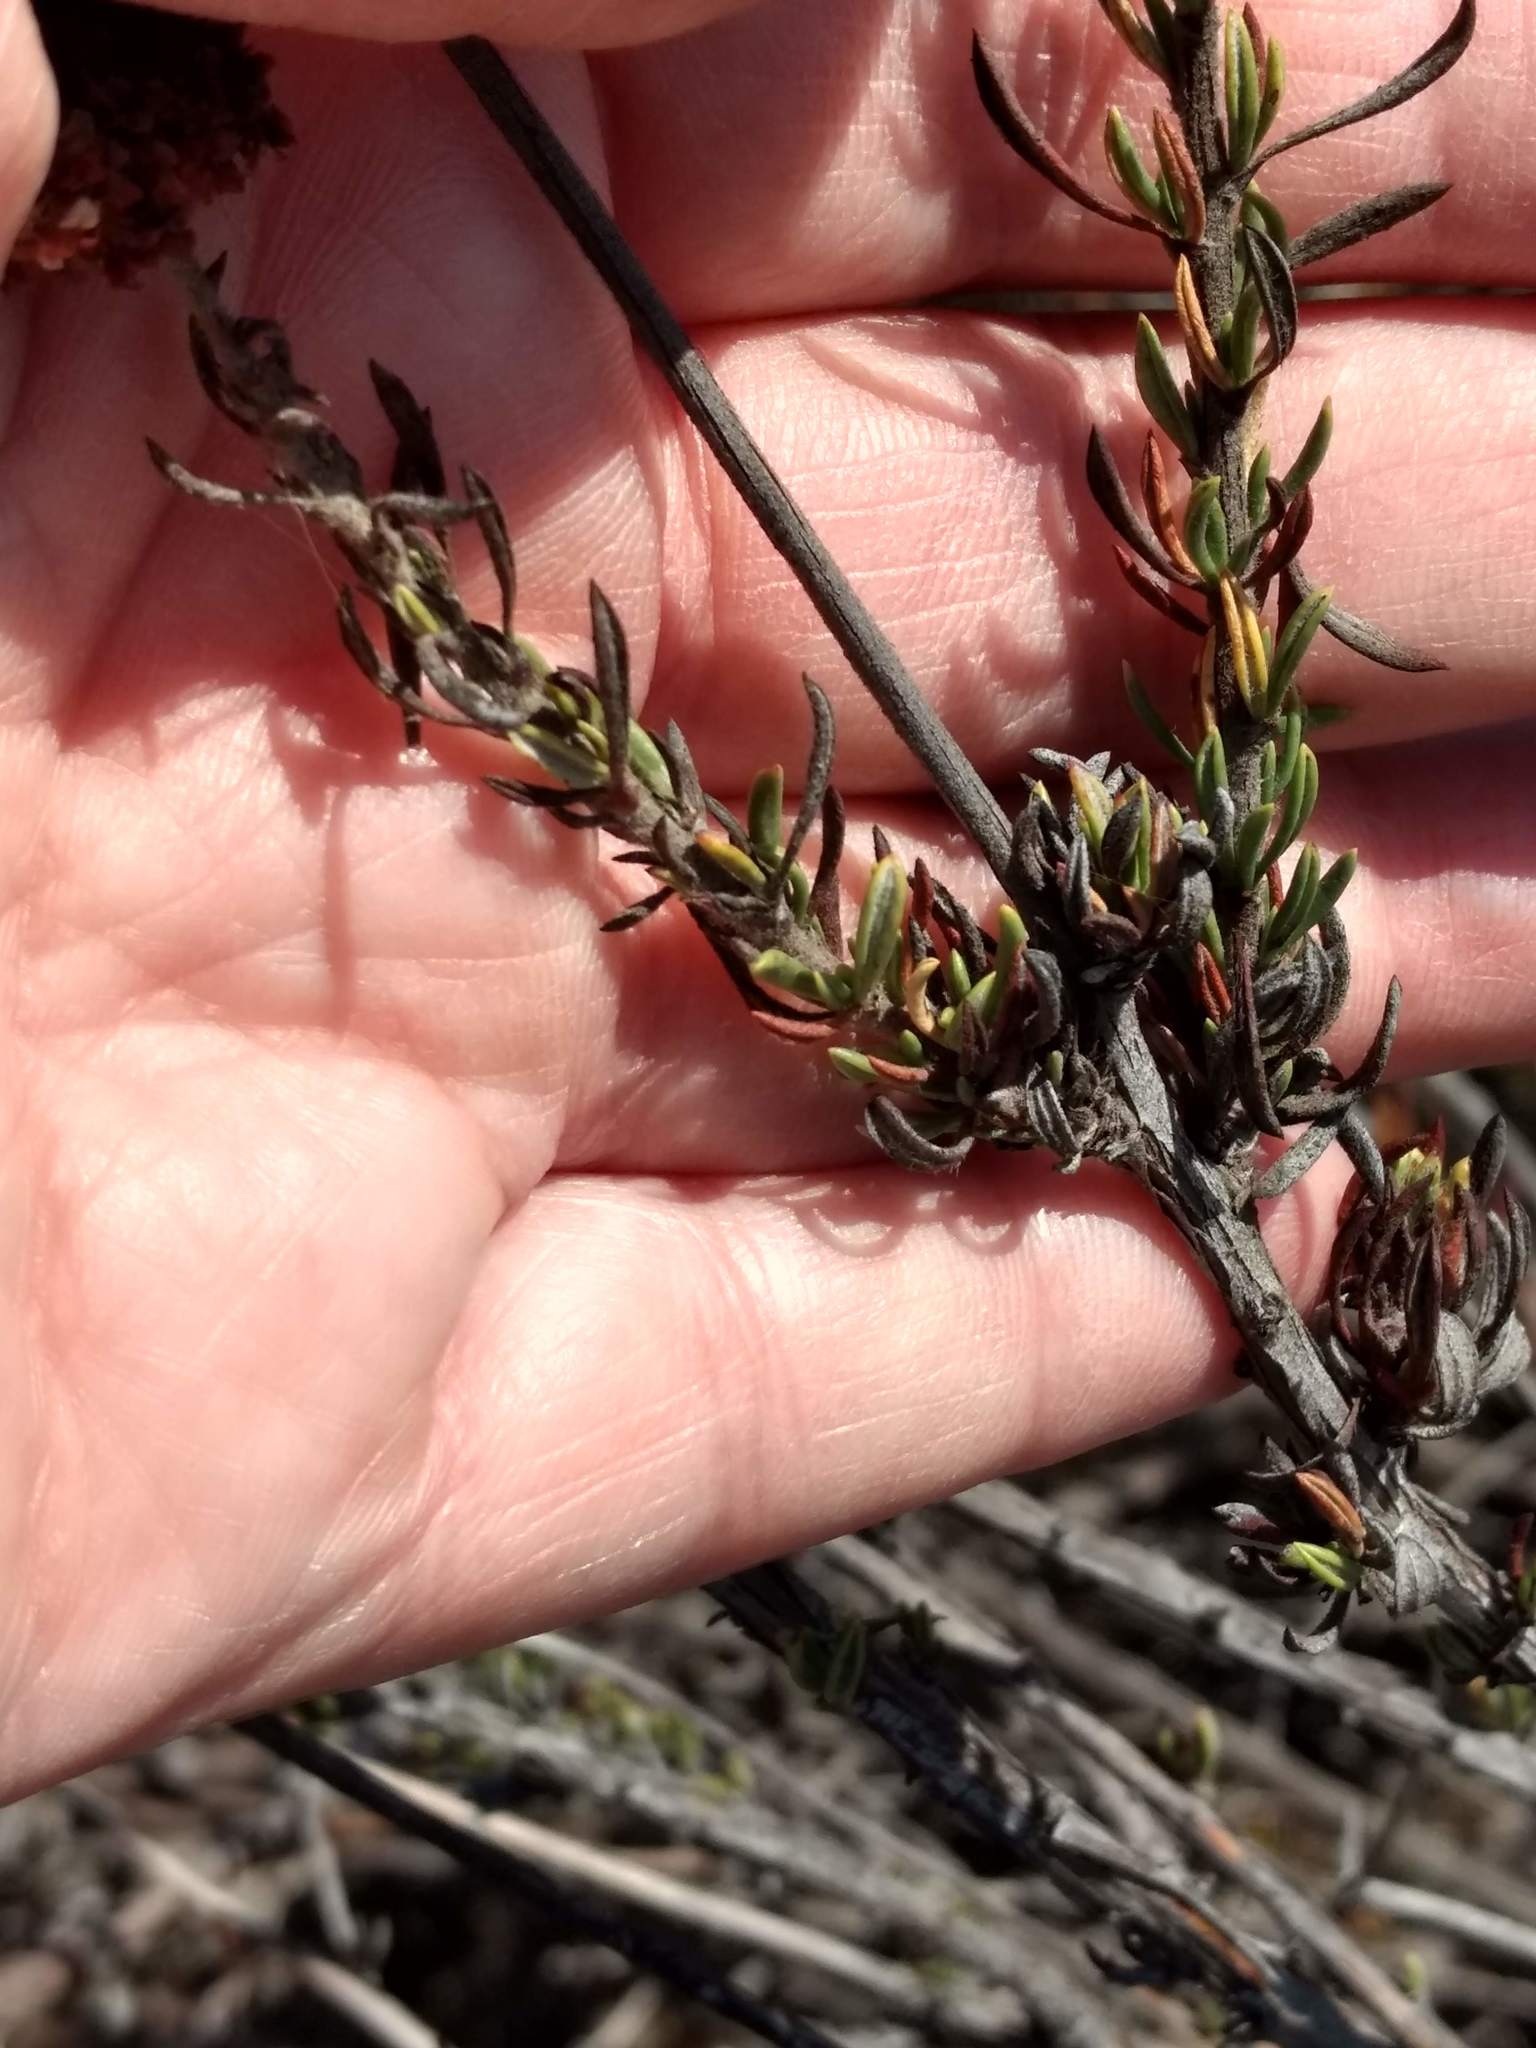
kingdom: Plantae
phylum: Tracheophyta
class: Magnoliopsida
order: Caryophyllales
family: Polygonaceae
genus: Eriogonum
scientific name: Eriogonum fasciculatum
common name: California wild buckwheat
